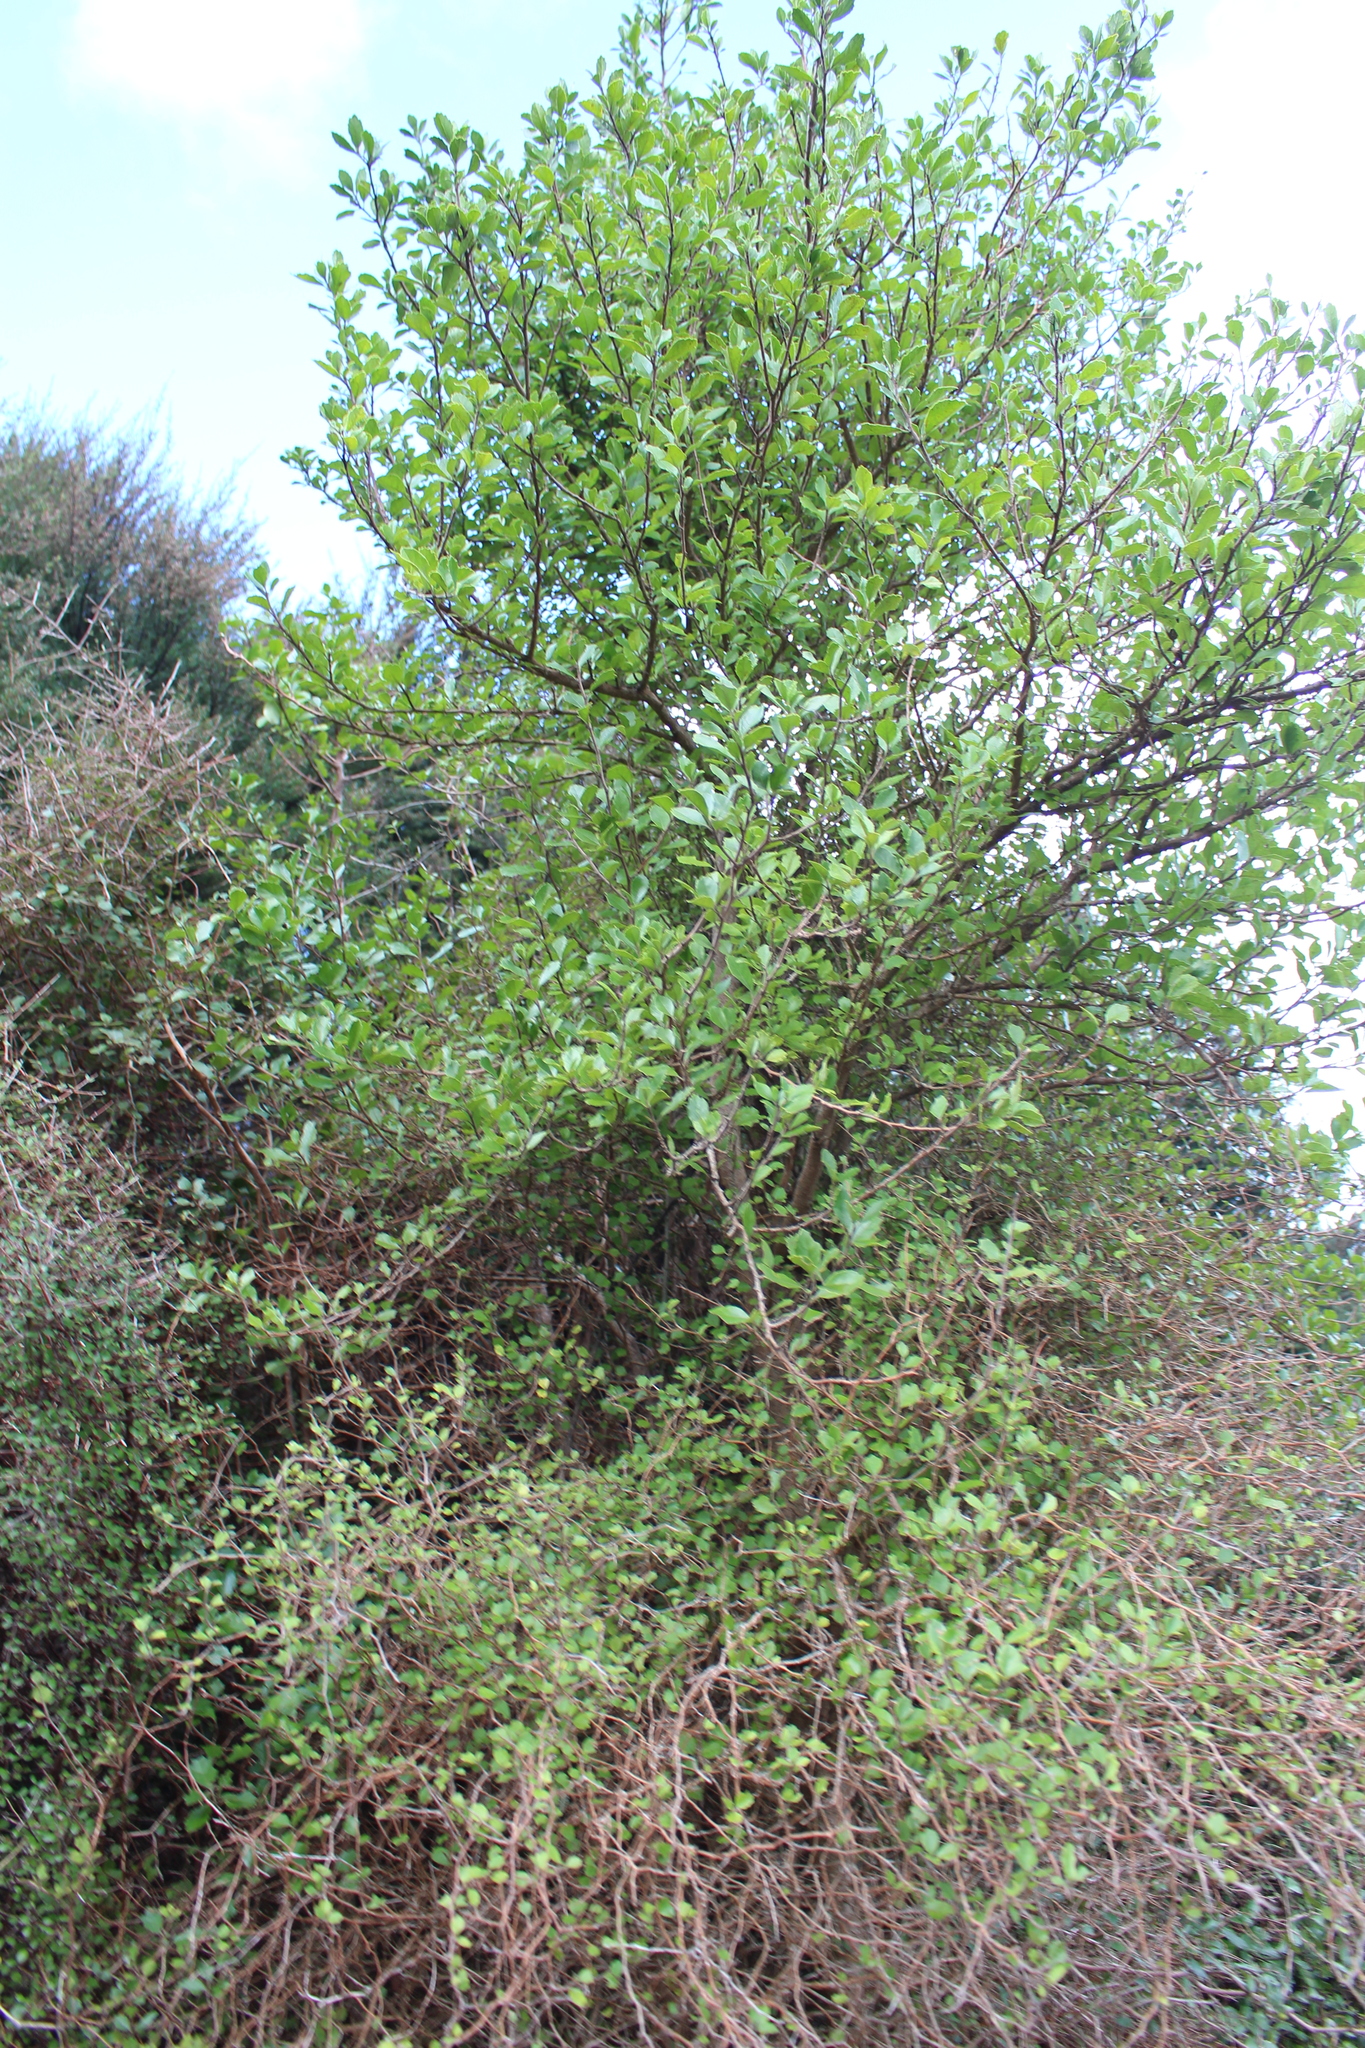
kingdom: Plantae
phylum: Tracheophyta
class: Magnoliopsida
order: Apiales
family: Pennantiaceae
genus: Pennantia
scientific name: Pennantia corymbosa
